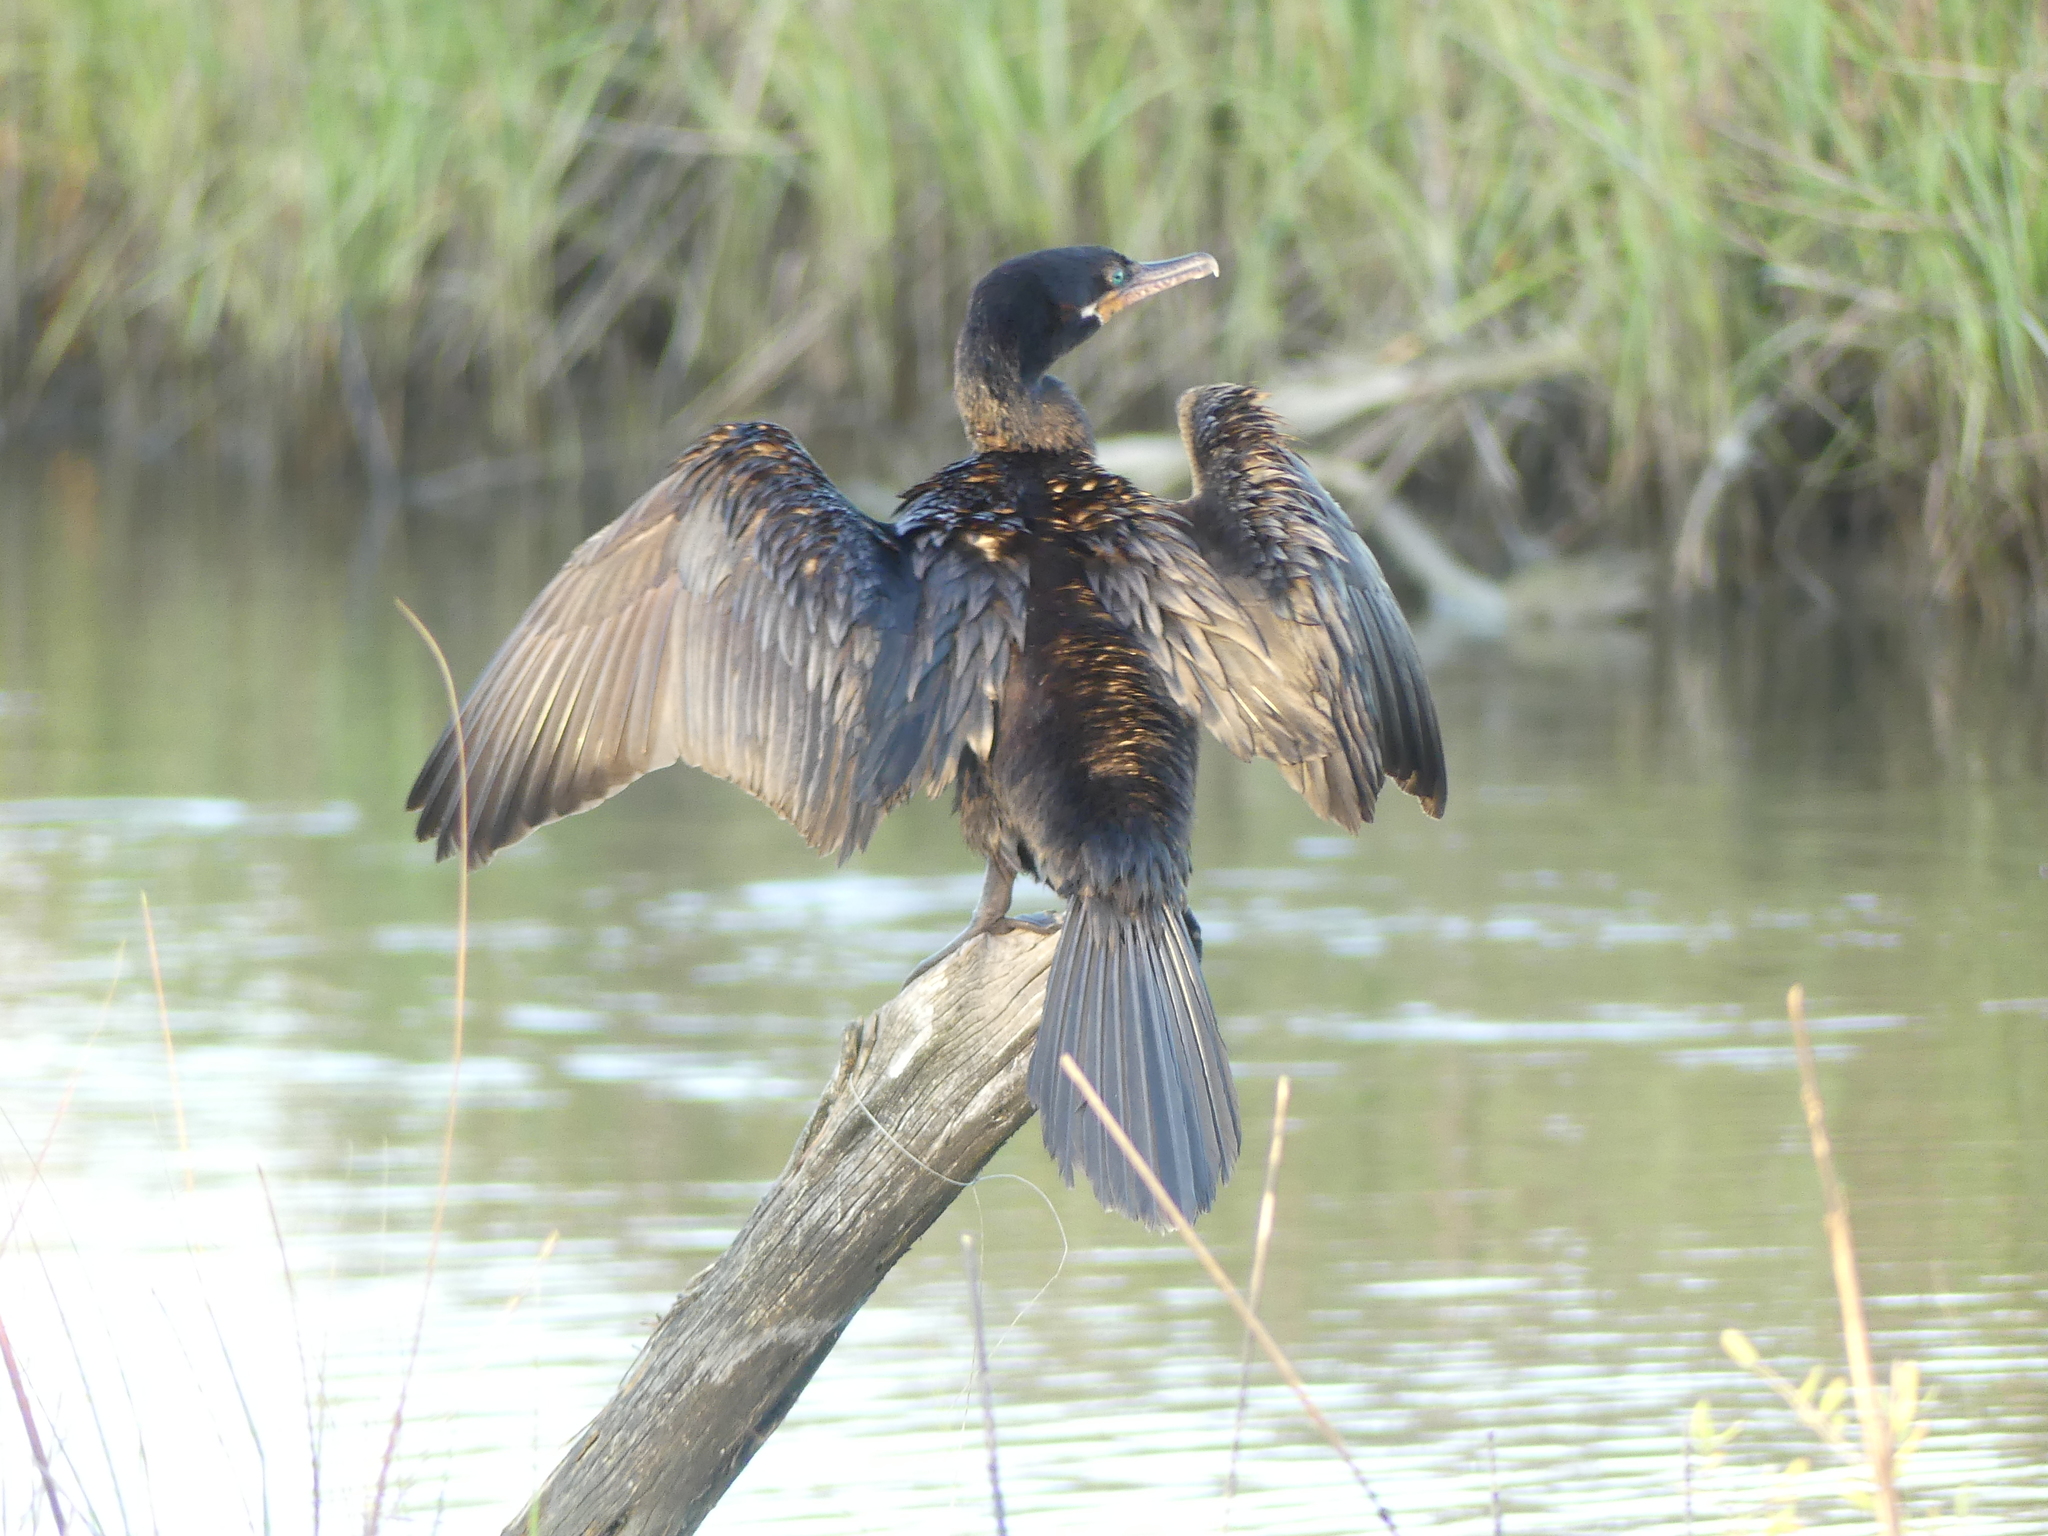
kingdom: Animalia
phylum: Chordata
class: Aves
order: Suliformes
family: Phalacrocoracidae
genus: Phalacrocorax
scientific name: Phalacrocorax brasilianus
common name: Neotropic cormorant
